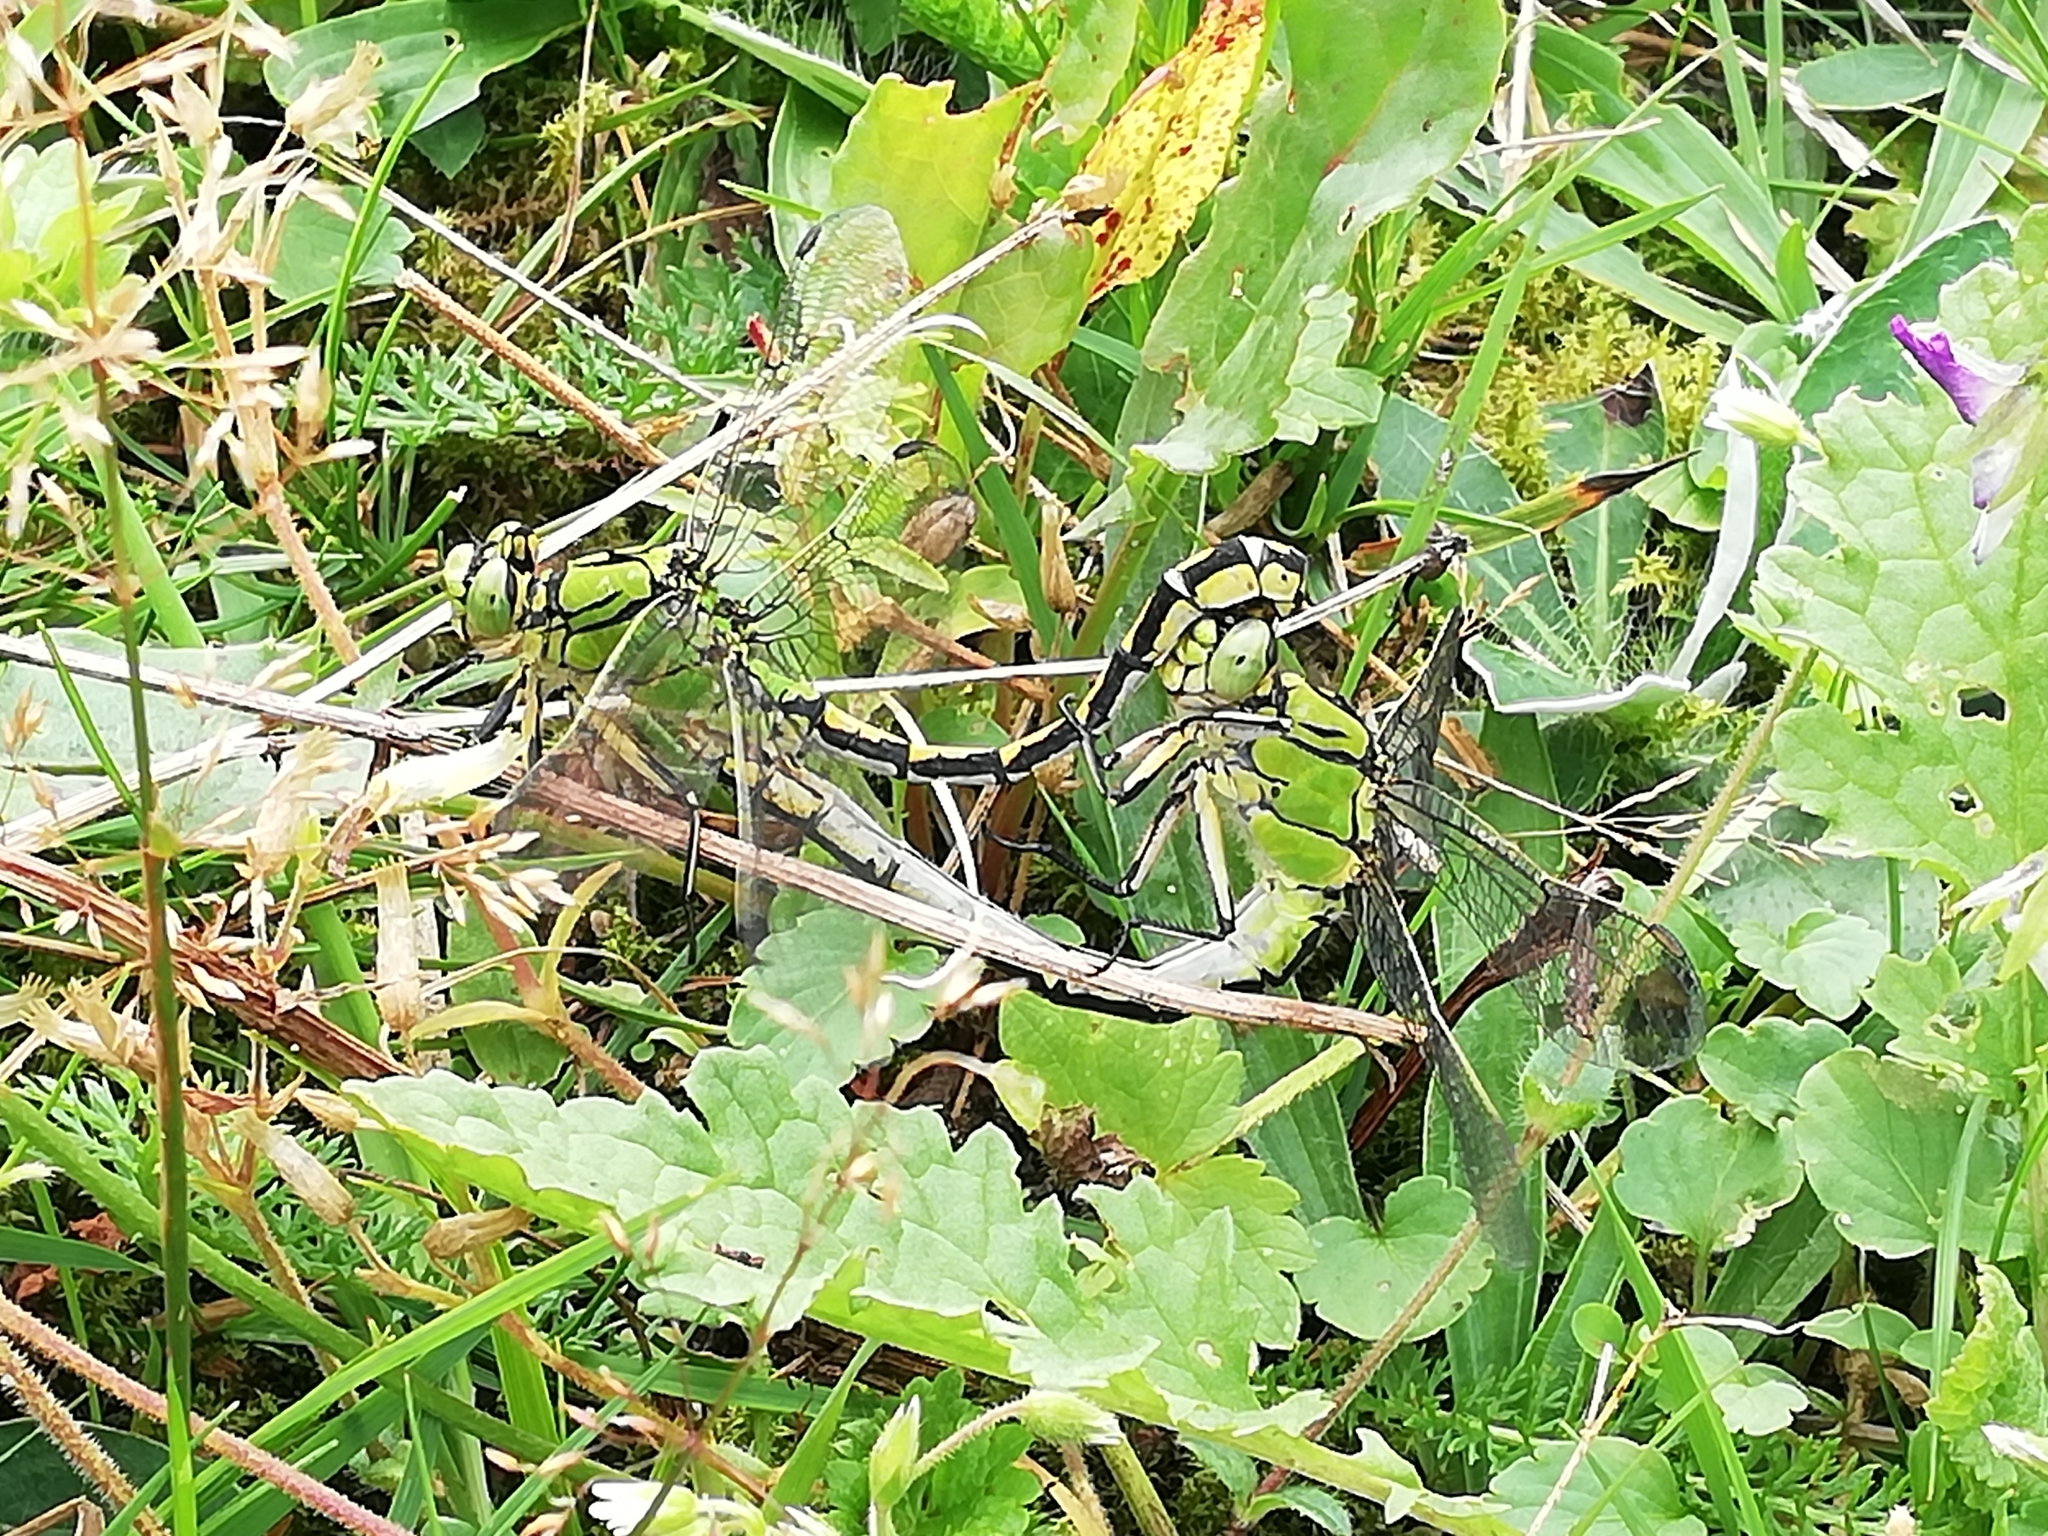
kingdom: Animalia
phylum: Arthropoda
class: Insecta
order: Odonata
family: Gomphidae
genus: Ophiogomphus
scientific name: Ophiogomphus cecilia
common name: Green snaketail
